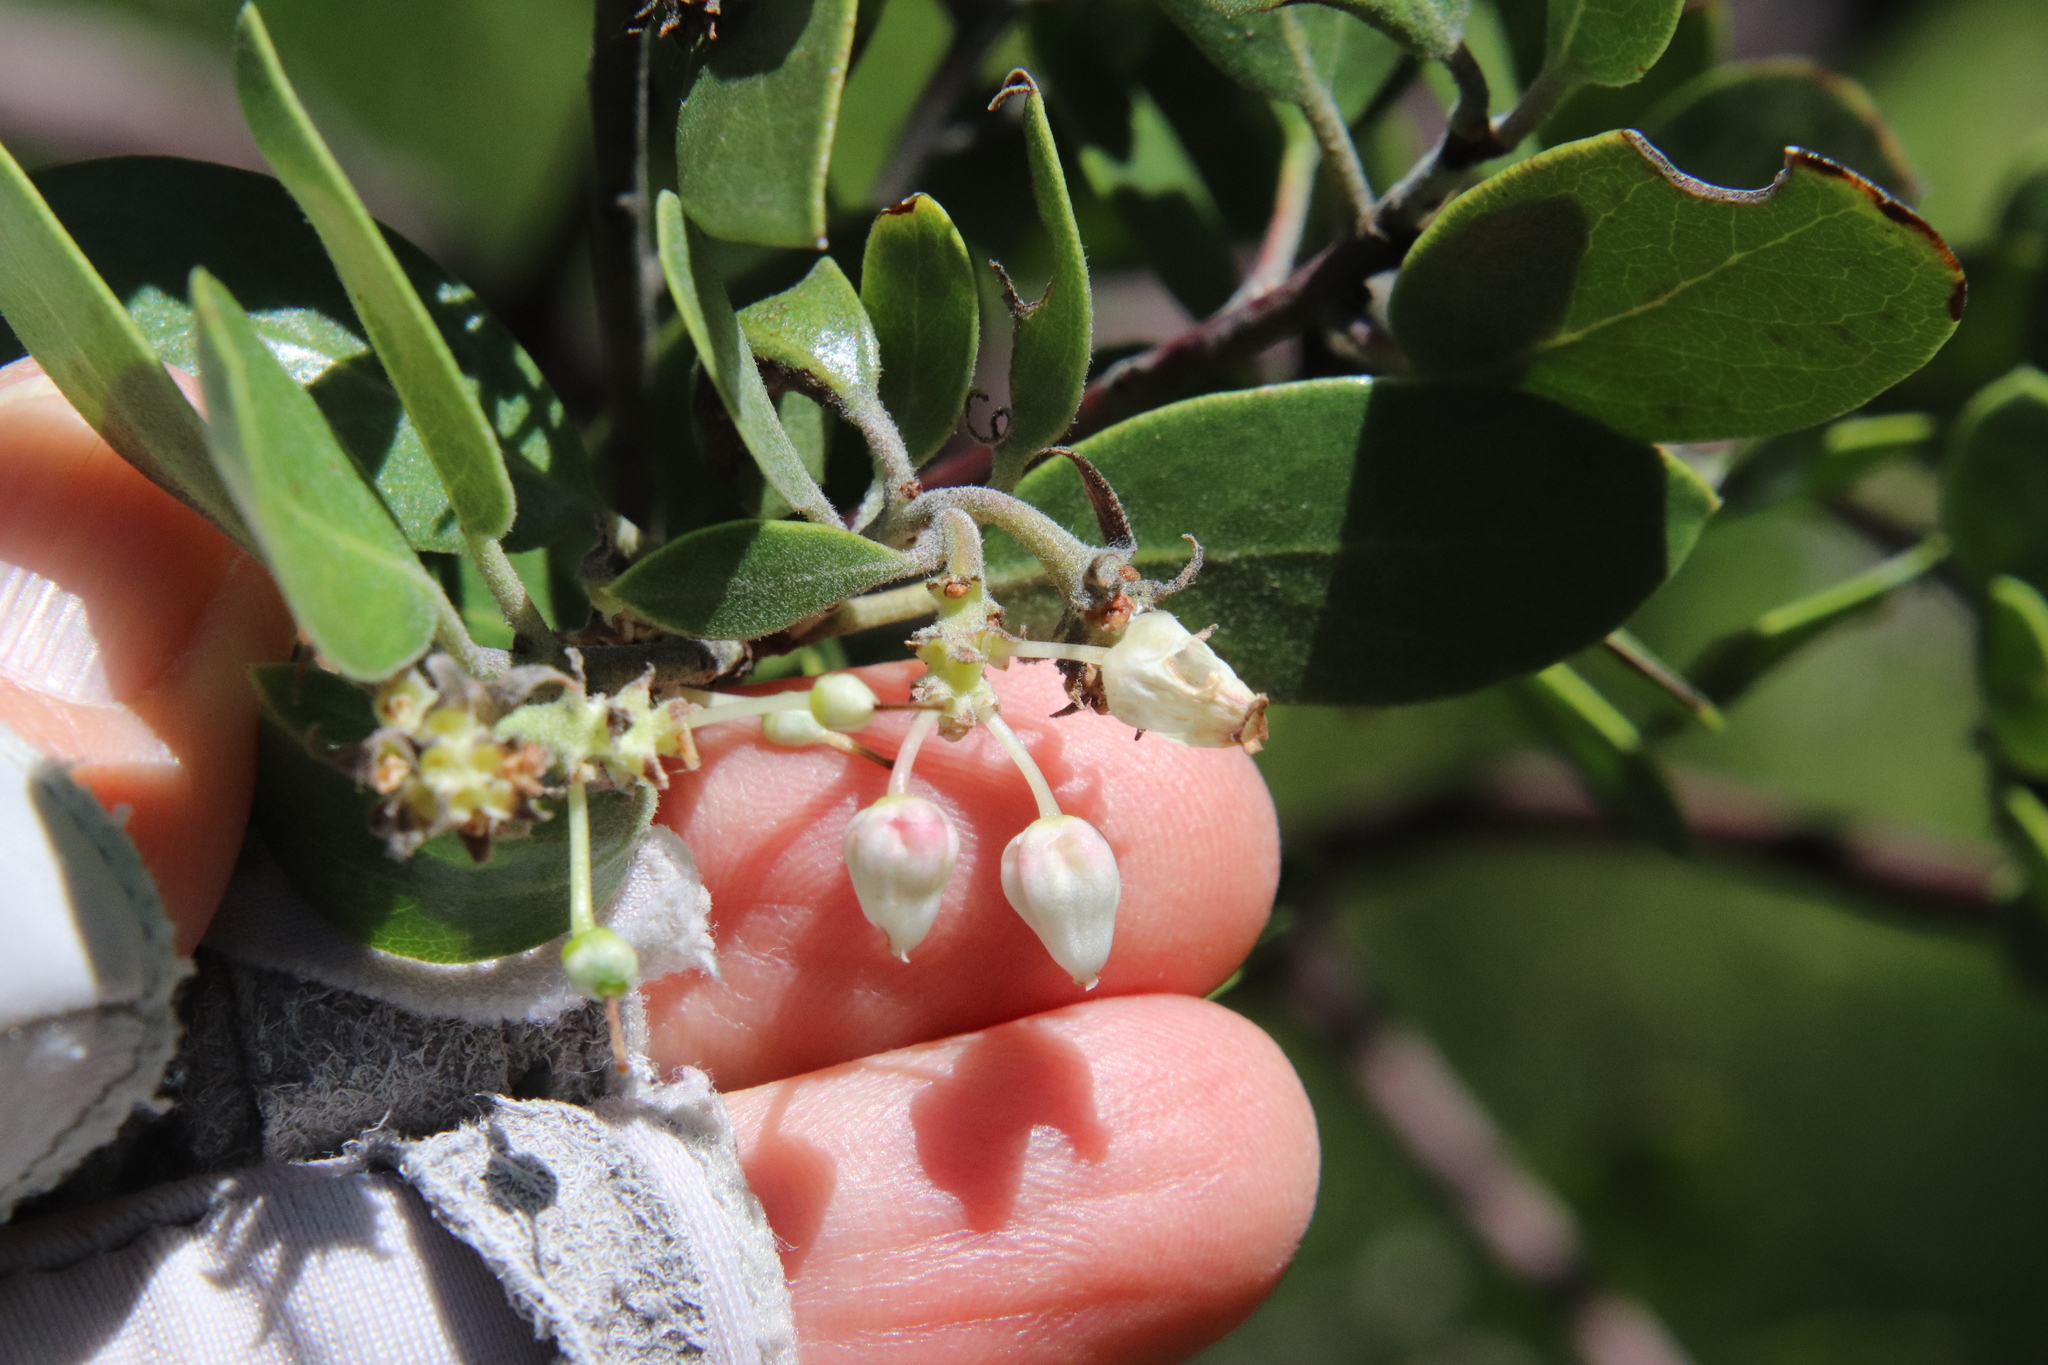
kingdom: Plantae
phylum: Tracheophyta
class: Magnoliopsida
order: Ericales
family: Ericaceae
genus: Arctostaphylos
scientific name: Arctostaphylos pungens
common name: Mexican manzanita
